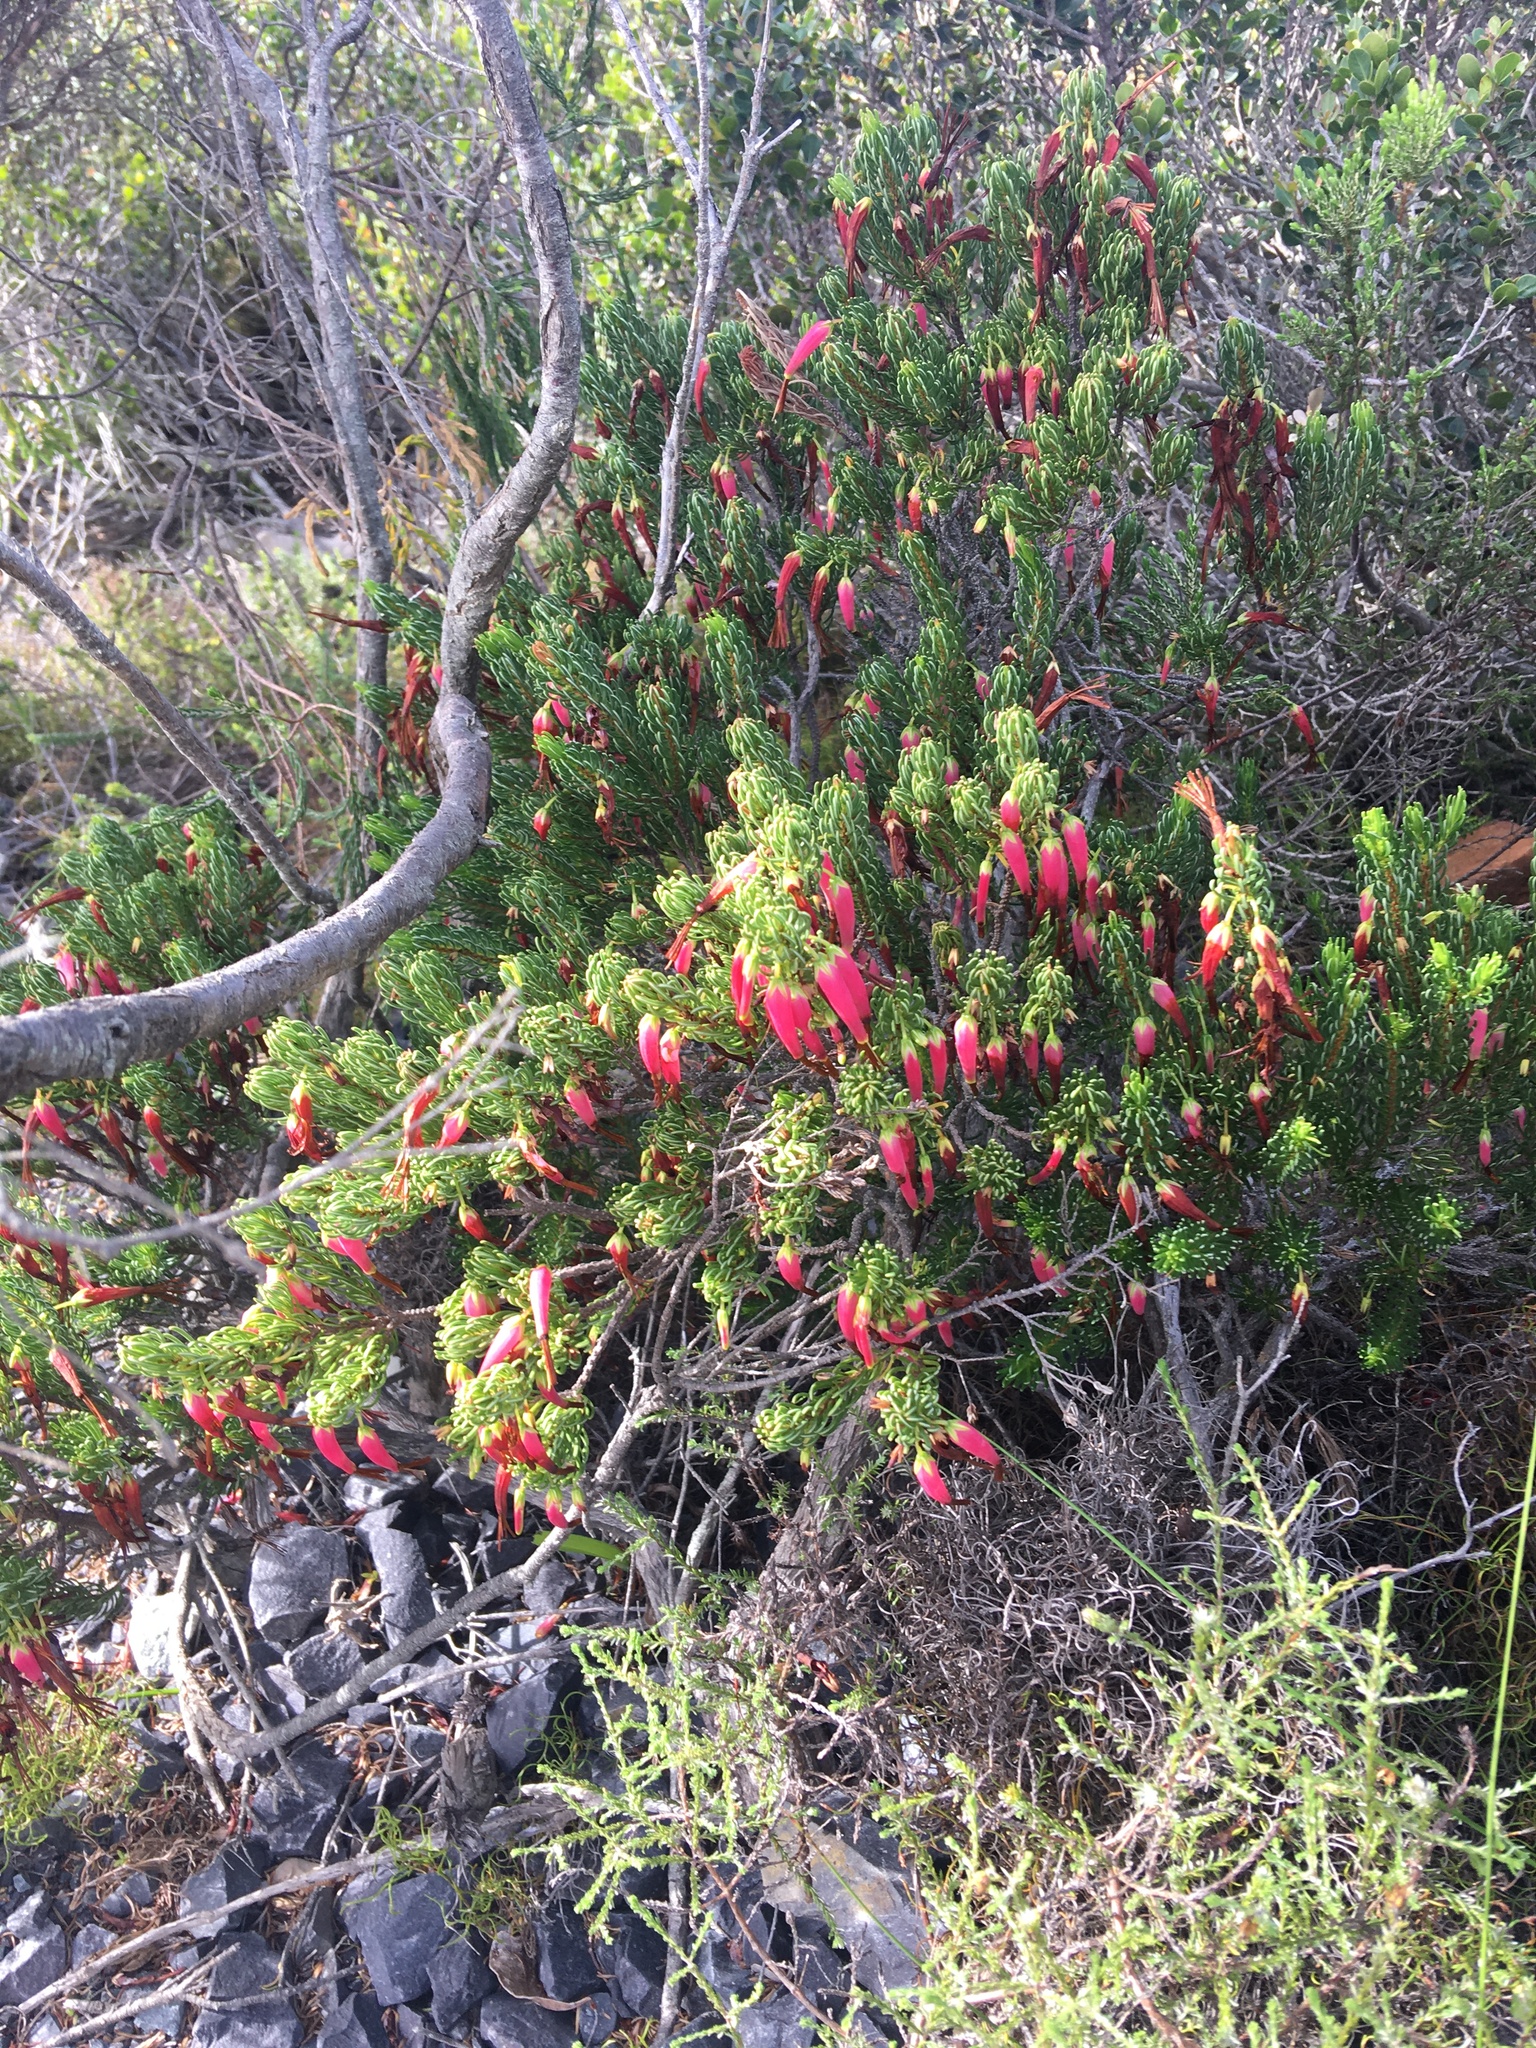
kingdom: Plantae
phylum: Tracheophyta
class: Magnoliopsida
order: Ericales
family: Ericaceae
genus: Erica
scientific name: Erica plukenetii
